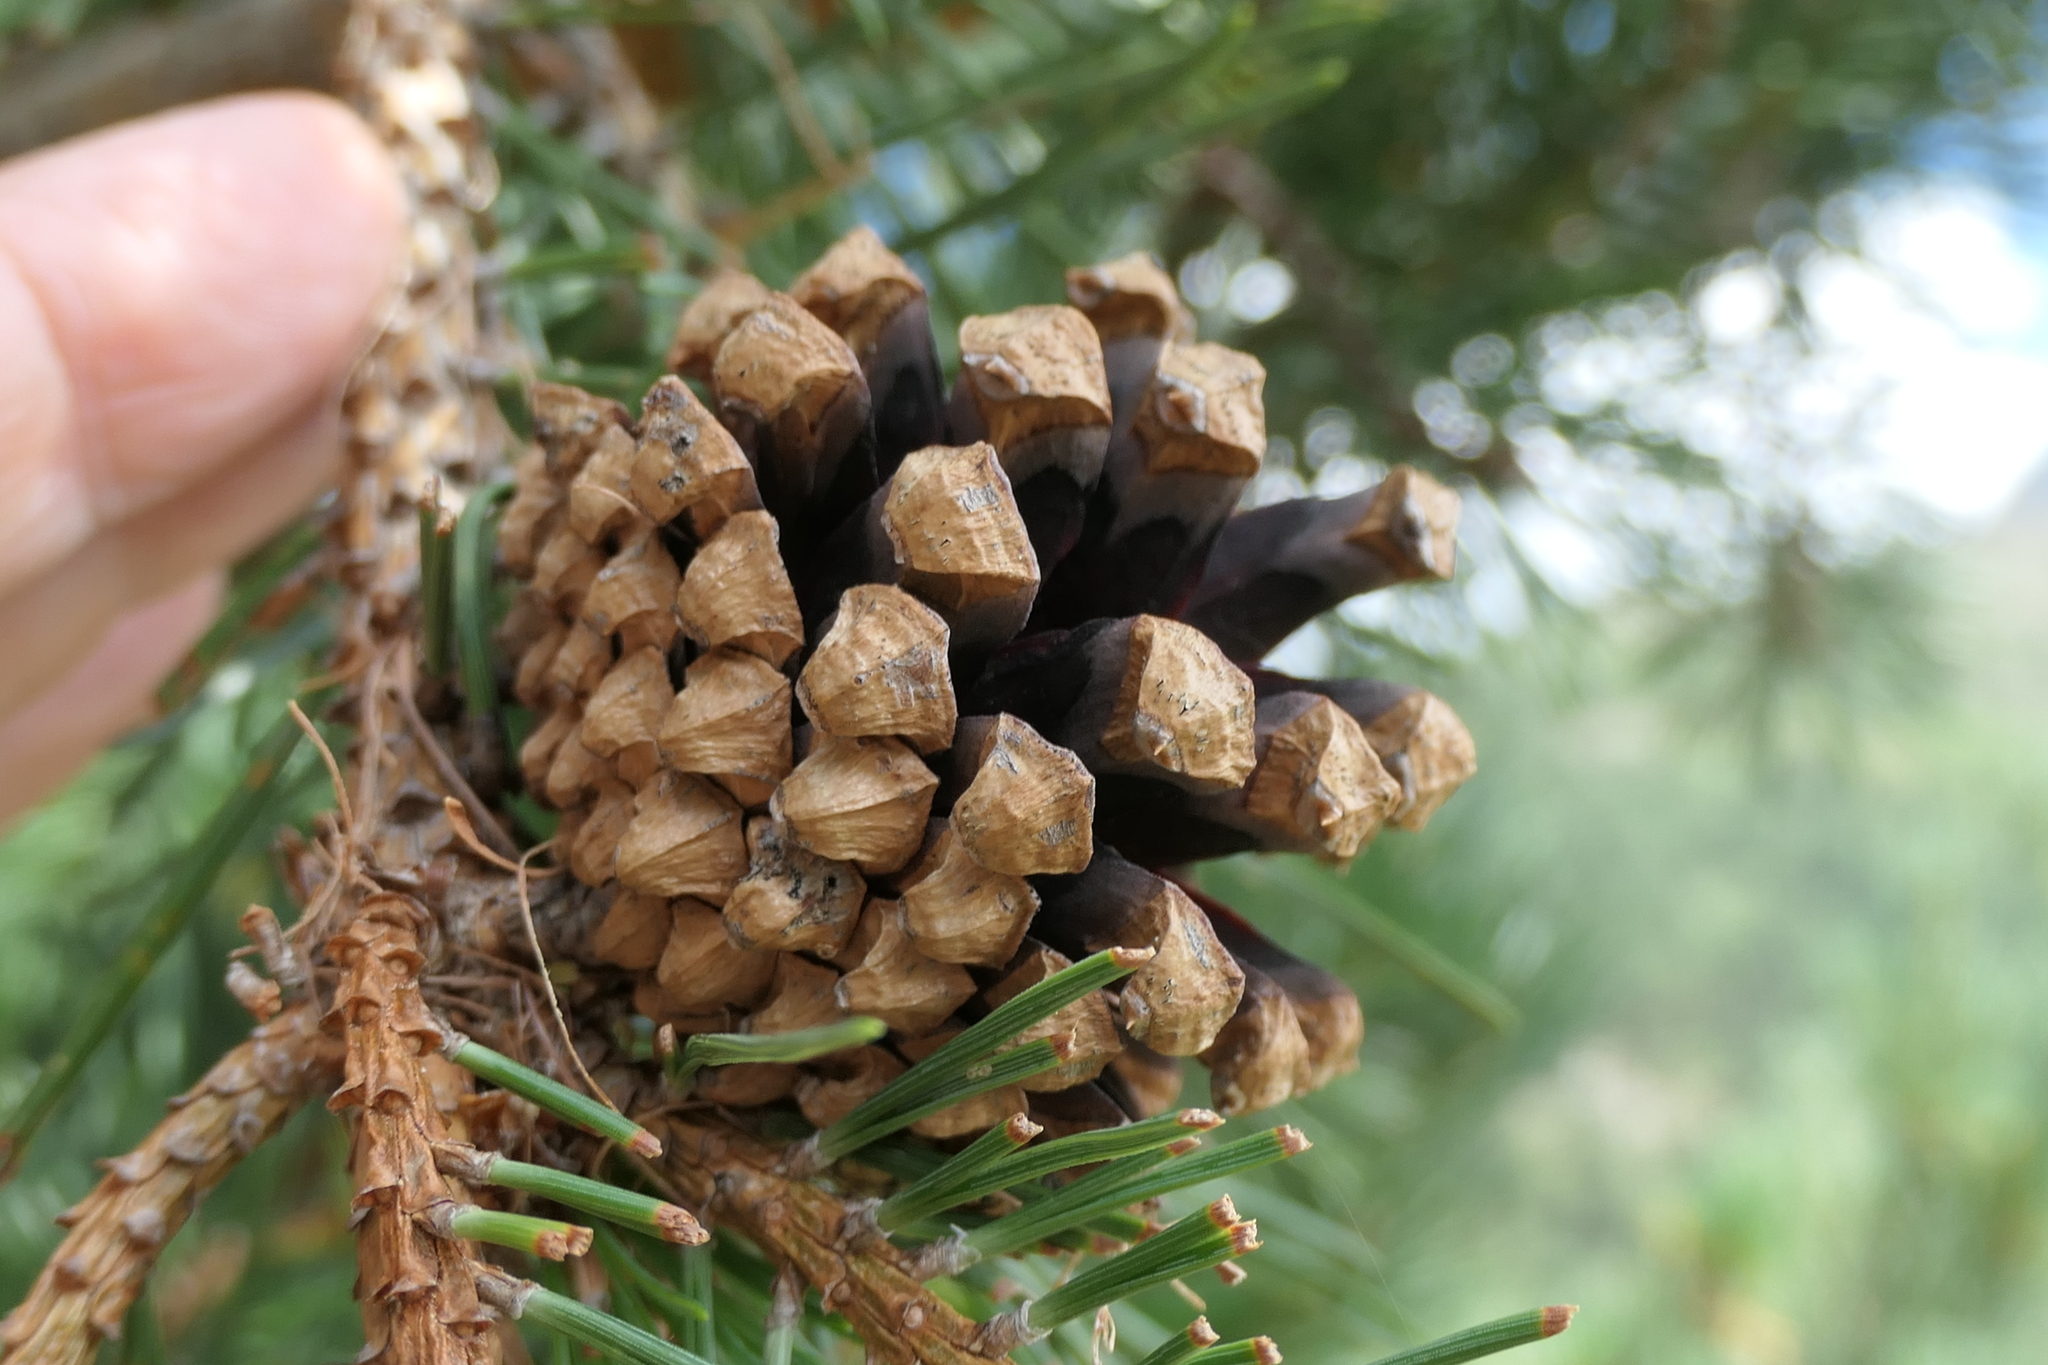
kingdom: Plantae
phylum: Tracheophyta
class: Pinopsida
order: Pinales
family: Pinaceae
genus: Pinus
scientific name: Pinus uncinata
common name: Mountain pine
